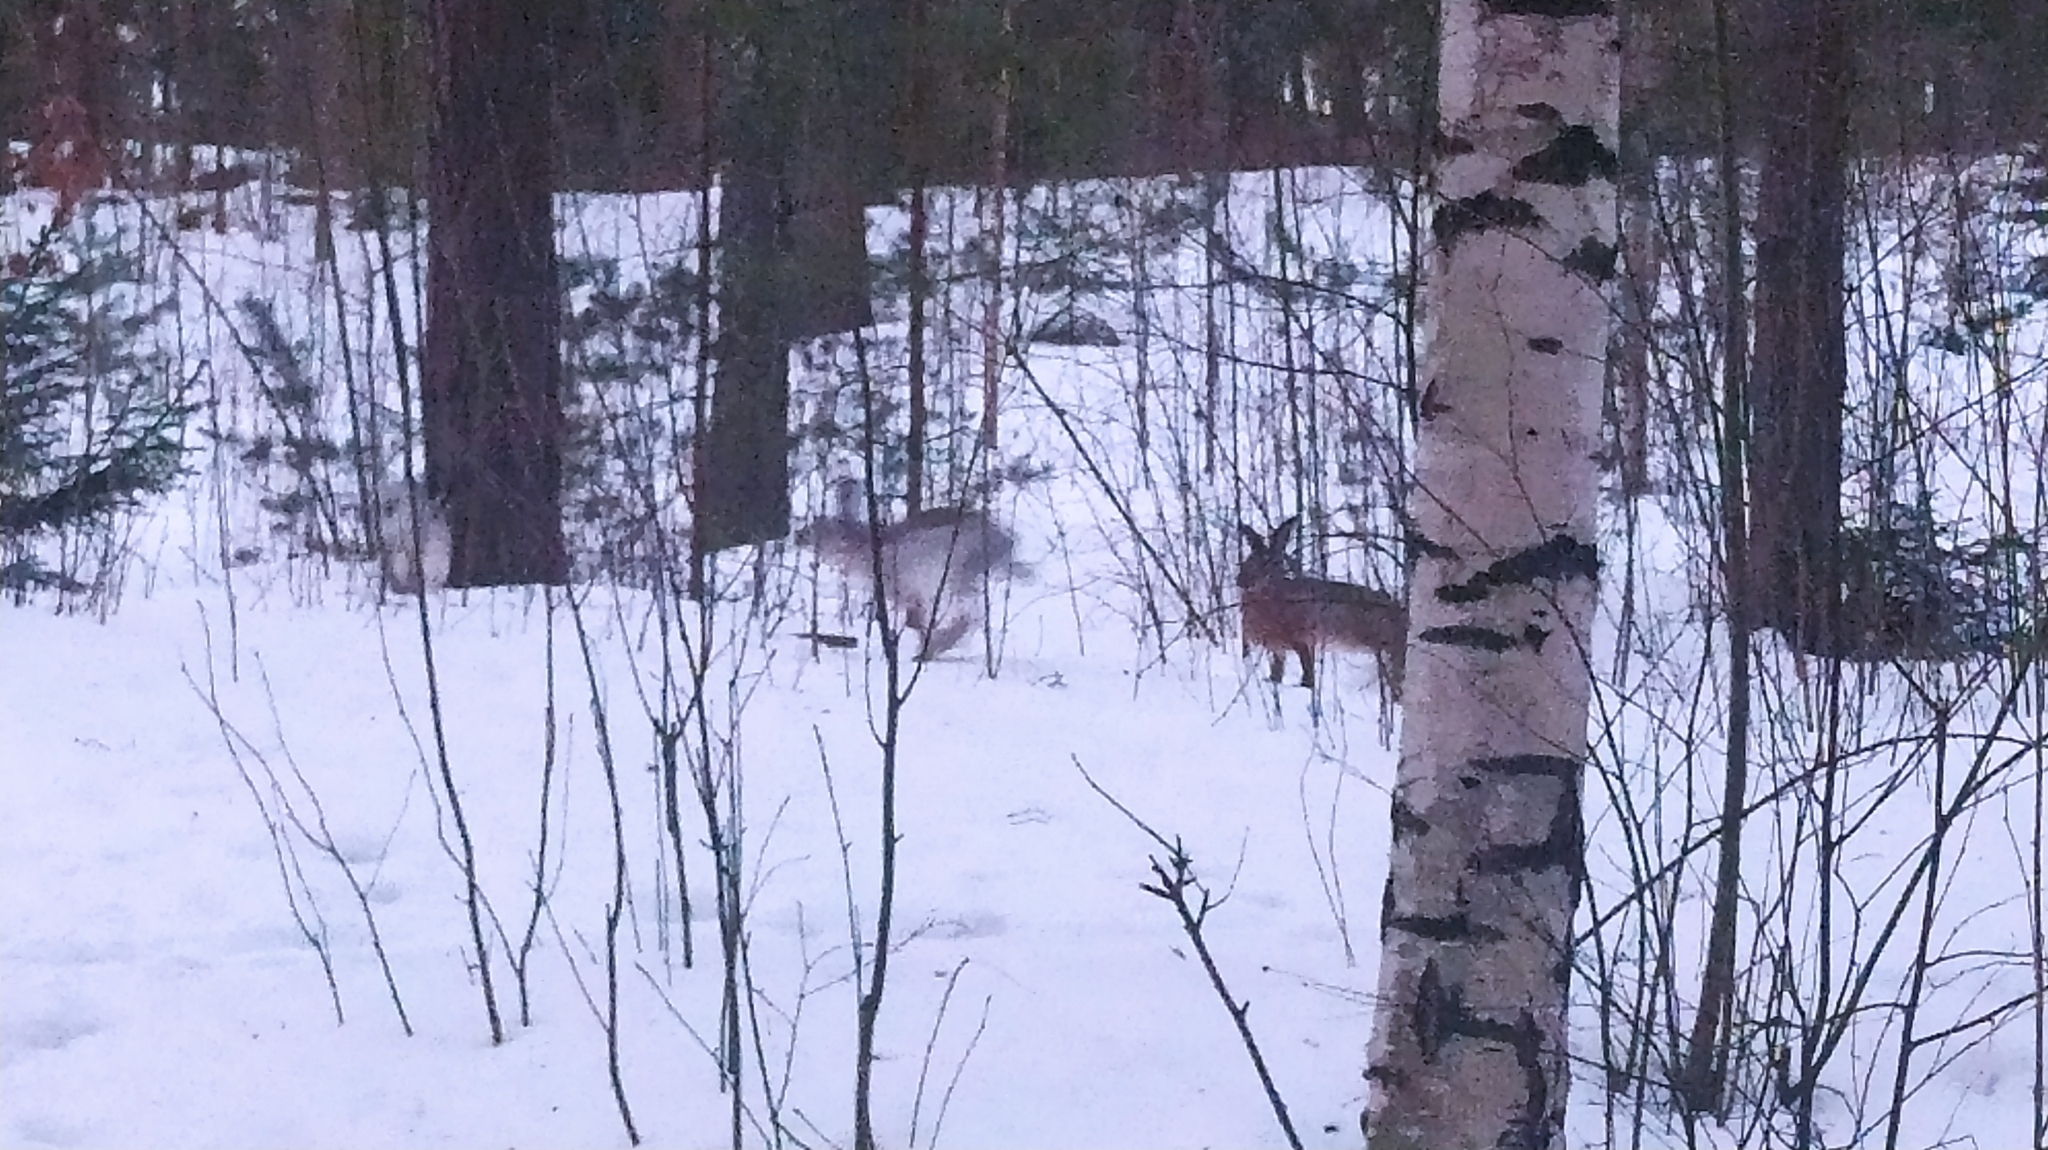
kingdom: Animalia
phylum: Chordata
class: Mammalia
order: Lagomorpha
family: Leporidae
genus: Lepus
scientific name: Lepus europaeus
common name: European hare
